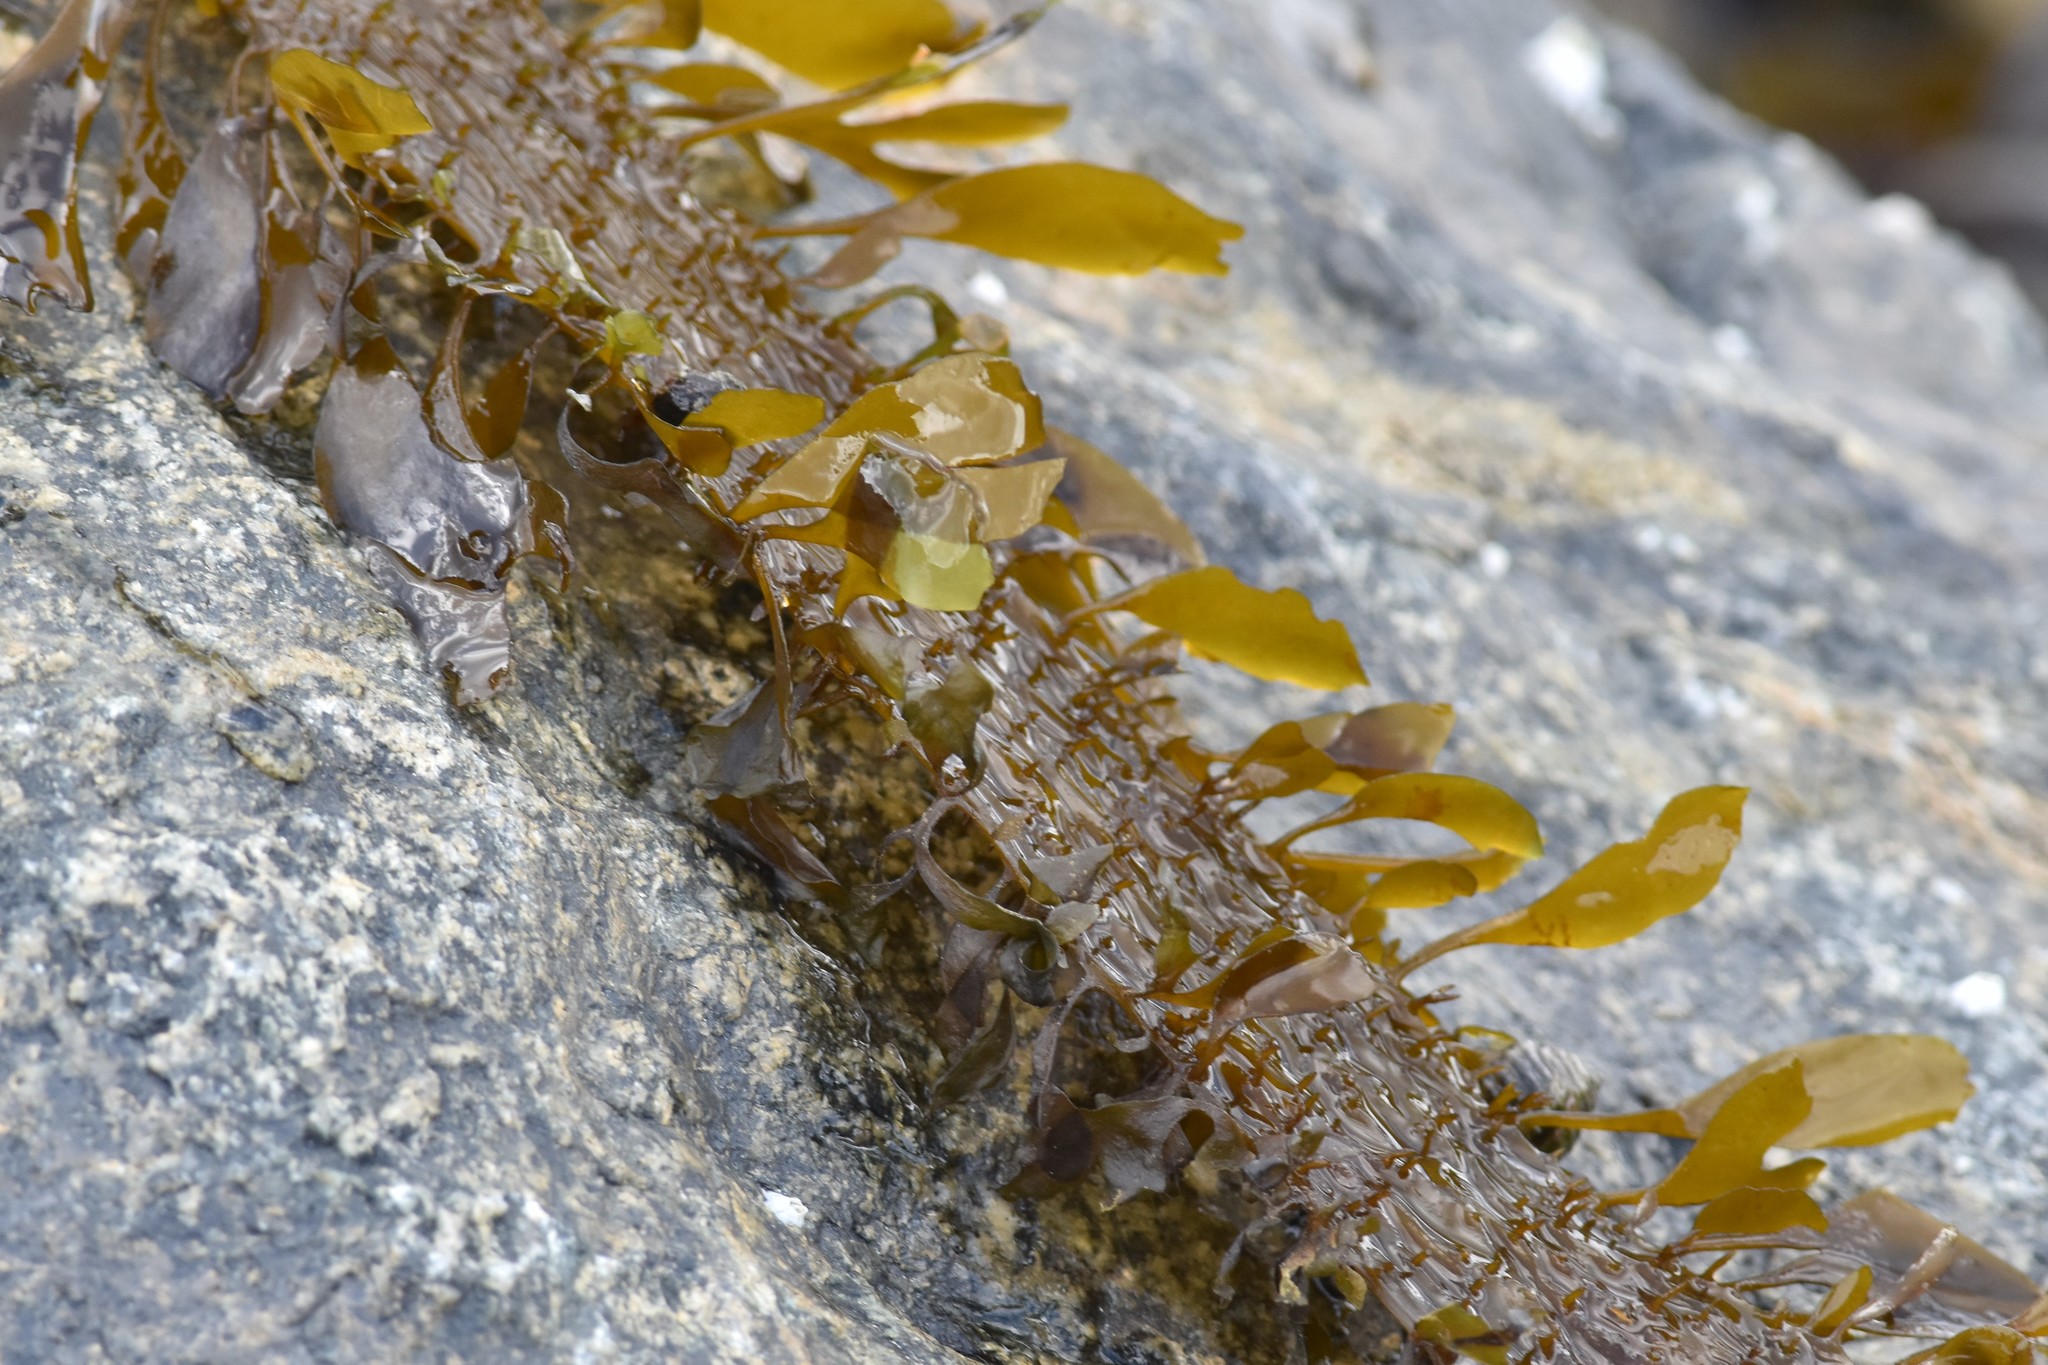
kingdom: Chromista
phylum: Ochrophyta
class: Phaeophyceae
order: Laminariales
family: Lessoniaceae
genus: Egregia
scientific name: Egregia menziesii
